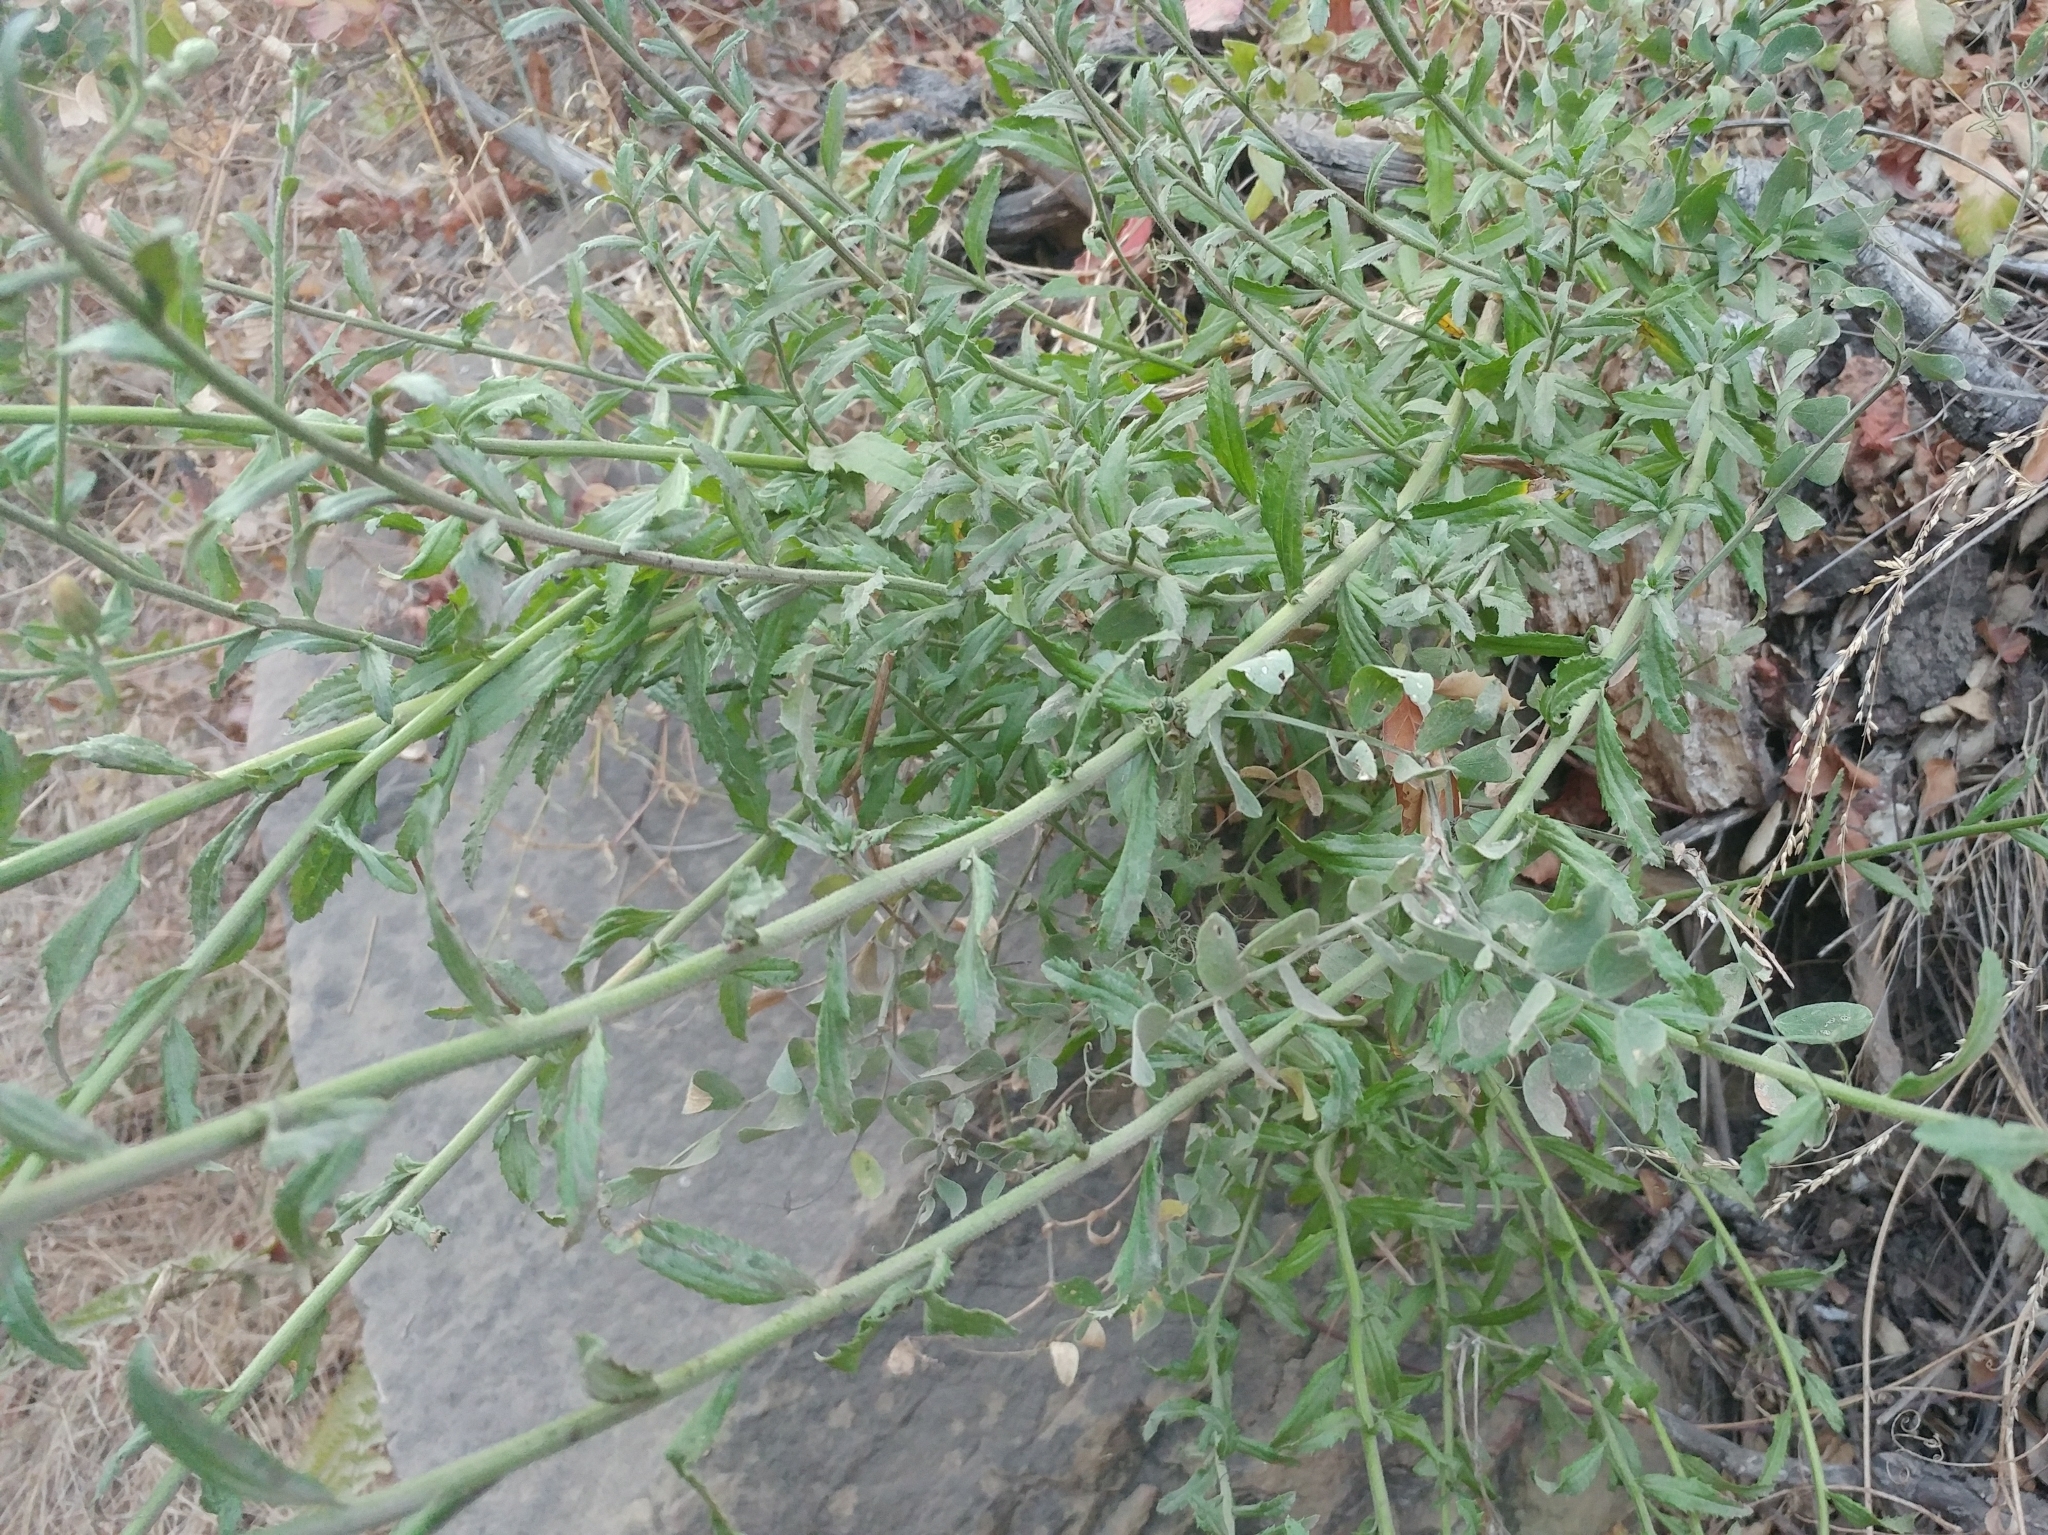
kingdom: Plantae
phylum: Tracheophyta
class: Magnoliopsida
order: Asterales
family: Asteraceae
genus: Baccharis
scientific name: Baccharis plummerae
